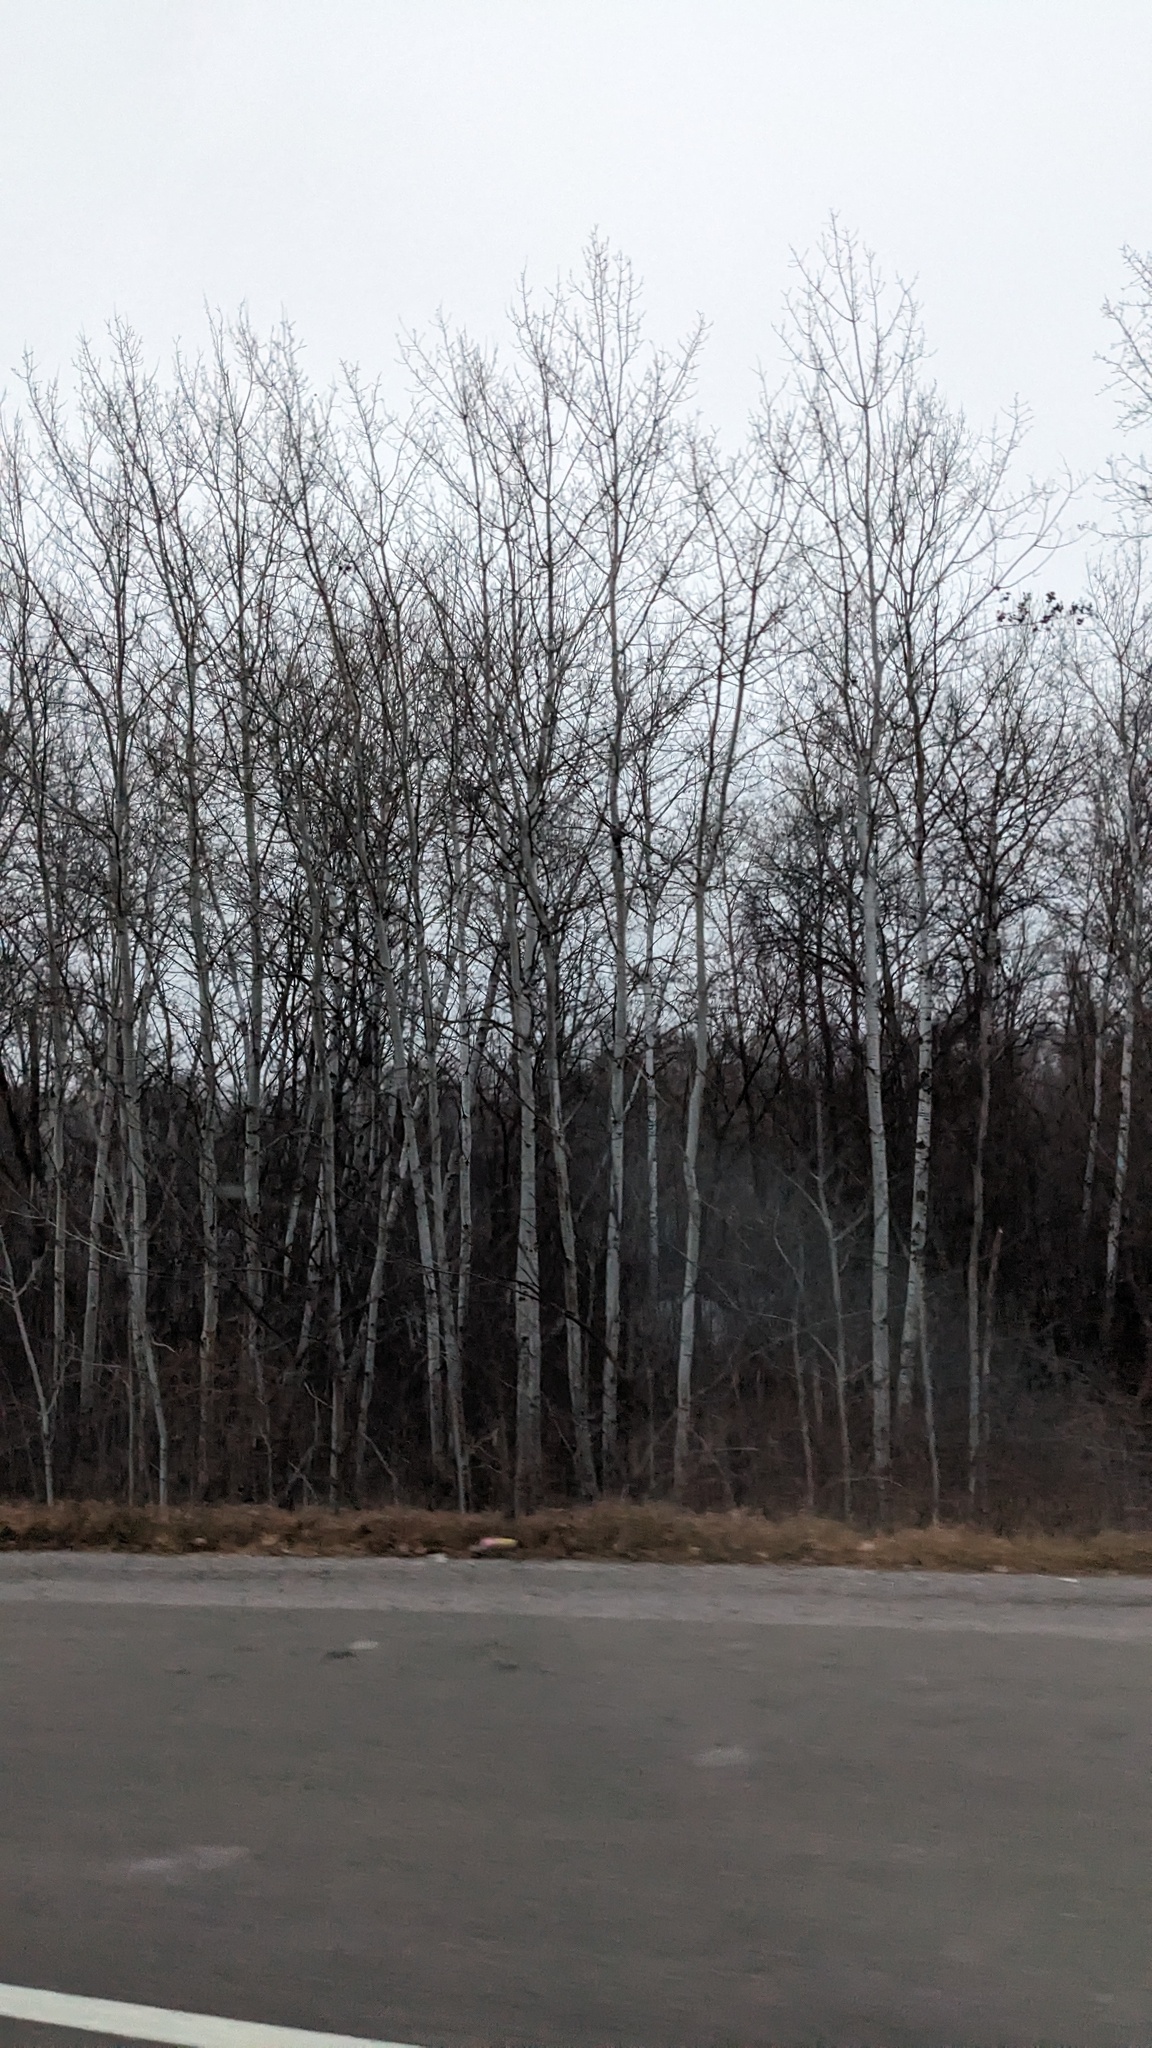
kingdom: Plantae
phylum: Tracheophyta
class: Magnoliopsida
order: Malpighiales
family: Salicaceae
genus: Populus
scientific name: Populus tremuloides
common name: Quaking aspen
